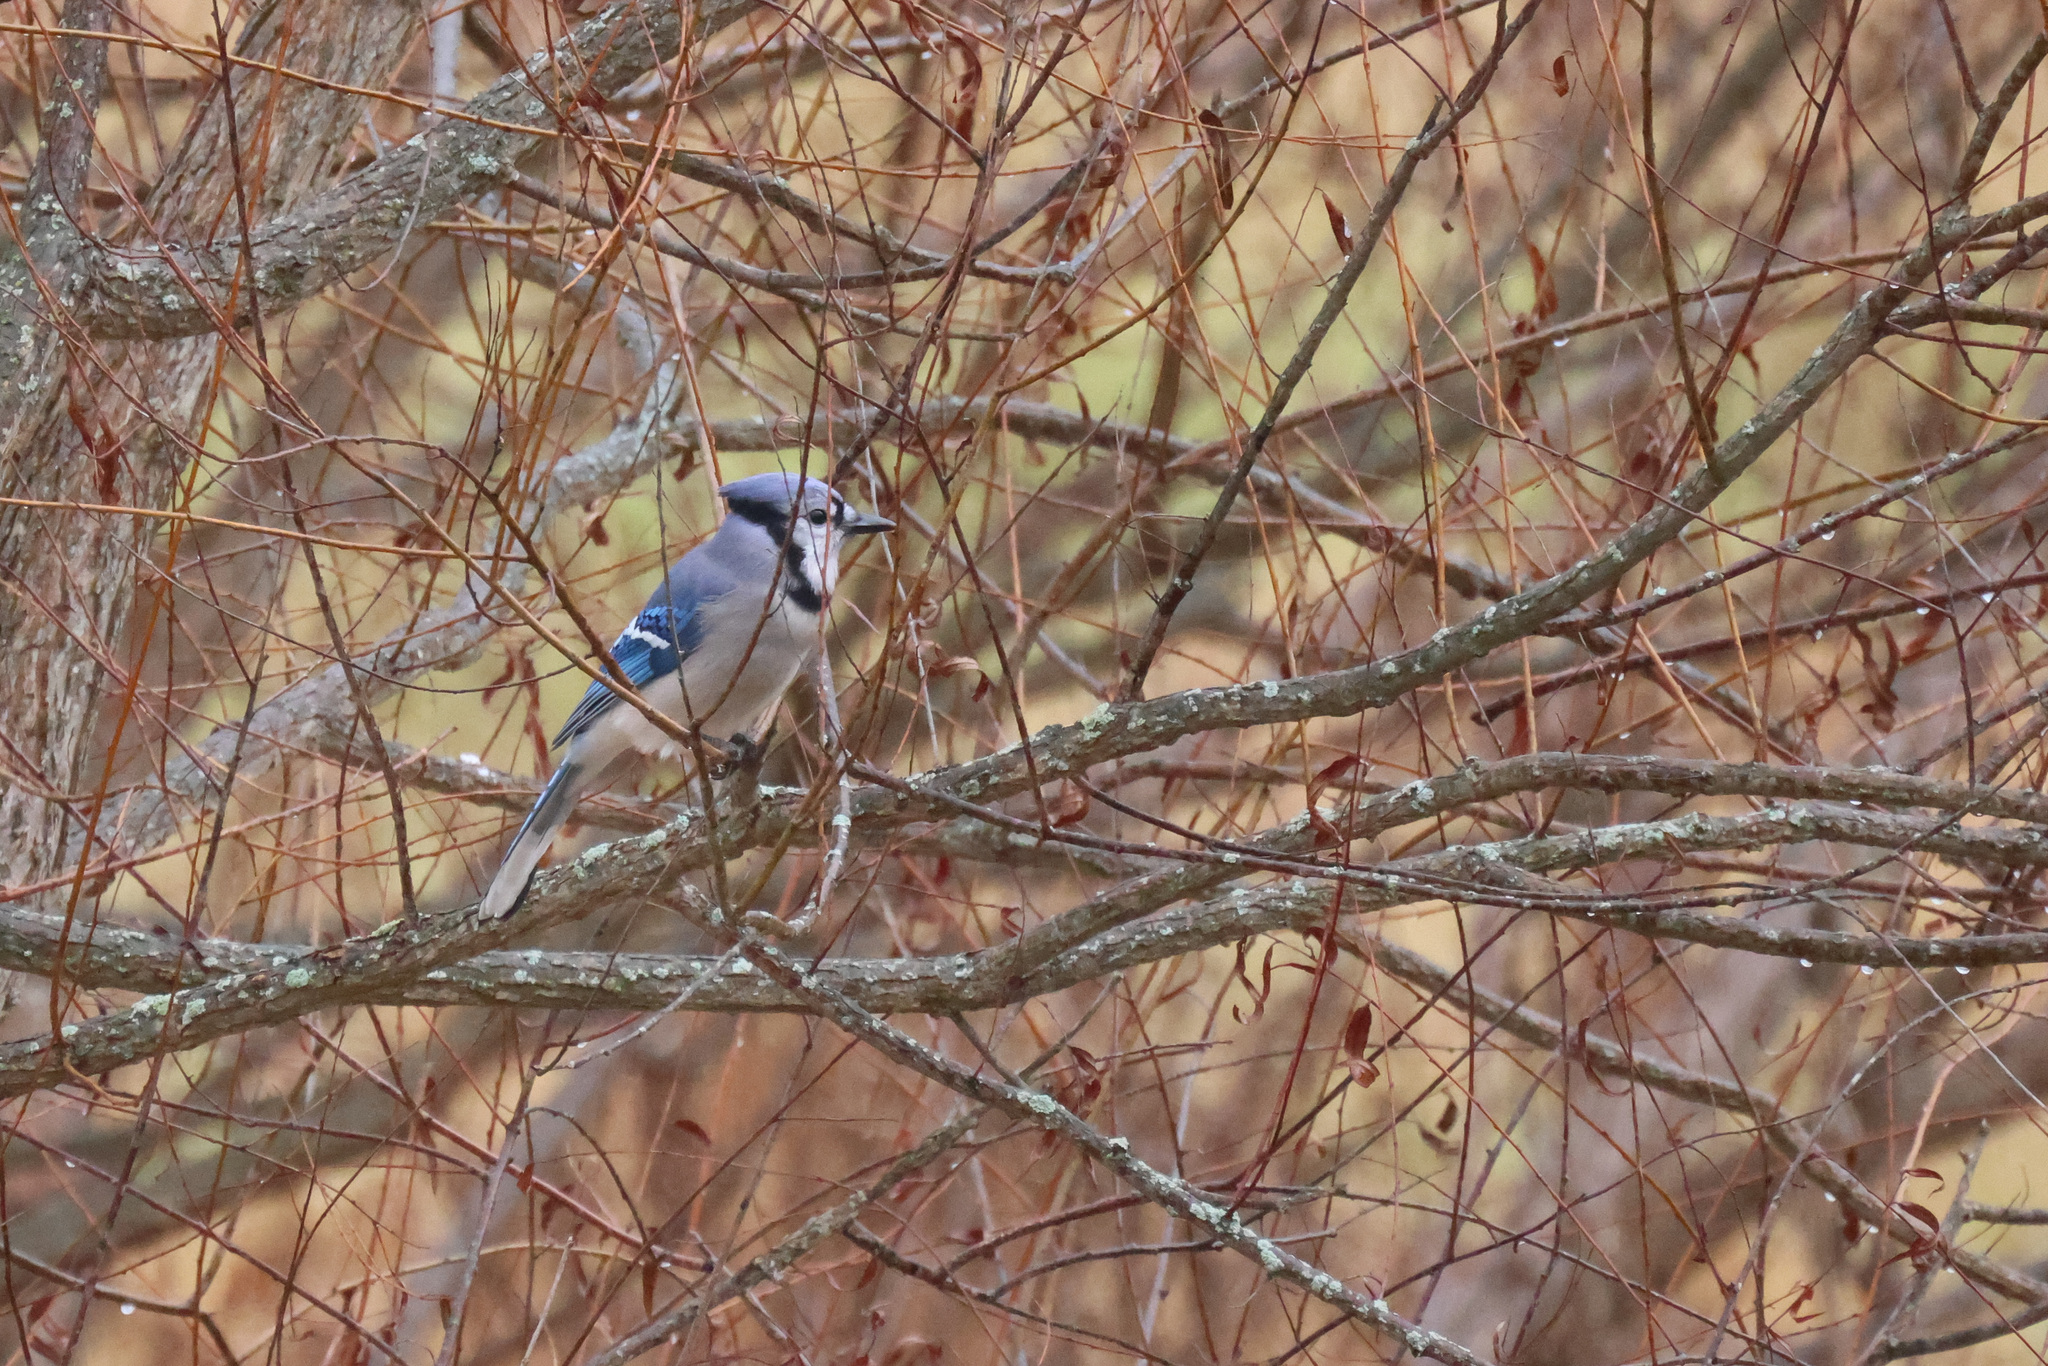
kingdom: Animalia
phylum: Chordata
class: Aves
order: Passeriformes
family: Corvidae
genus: Cyanocitta
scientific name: Cyanocitta cristata
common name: Blue jay
